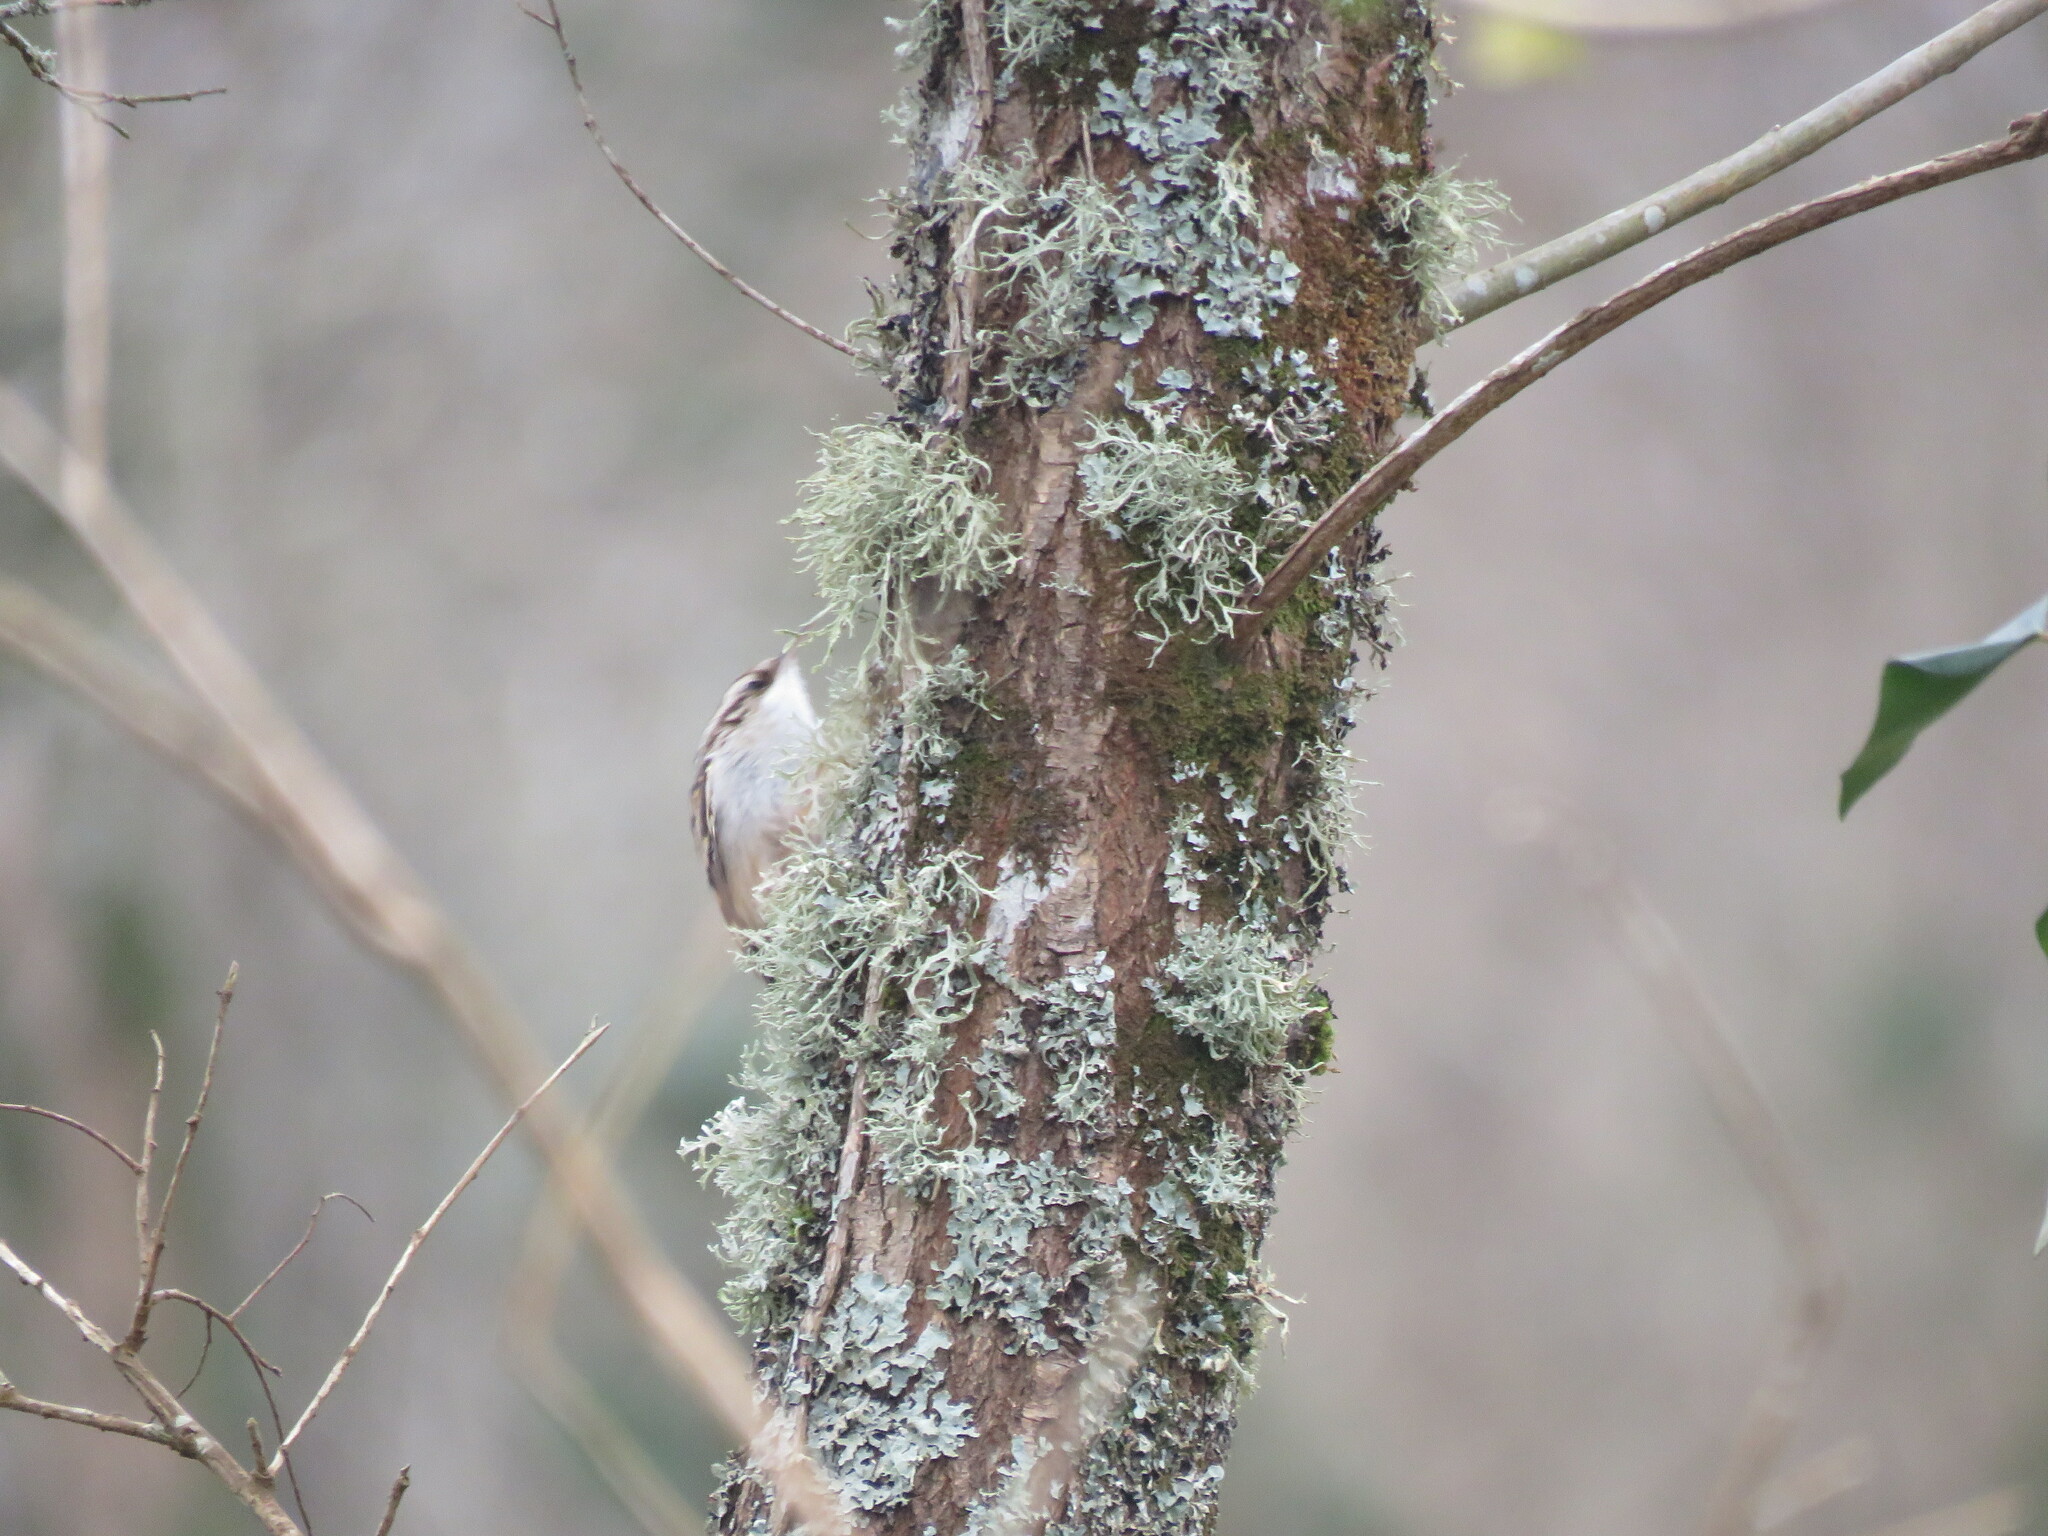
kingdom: Animalia
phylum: Chordata
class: Aves
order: Passeriformes
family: Certhiidae
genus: Certhia
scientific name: Certhia brachydactyla
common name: Short-toed treecreeper
